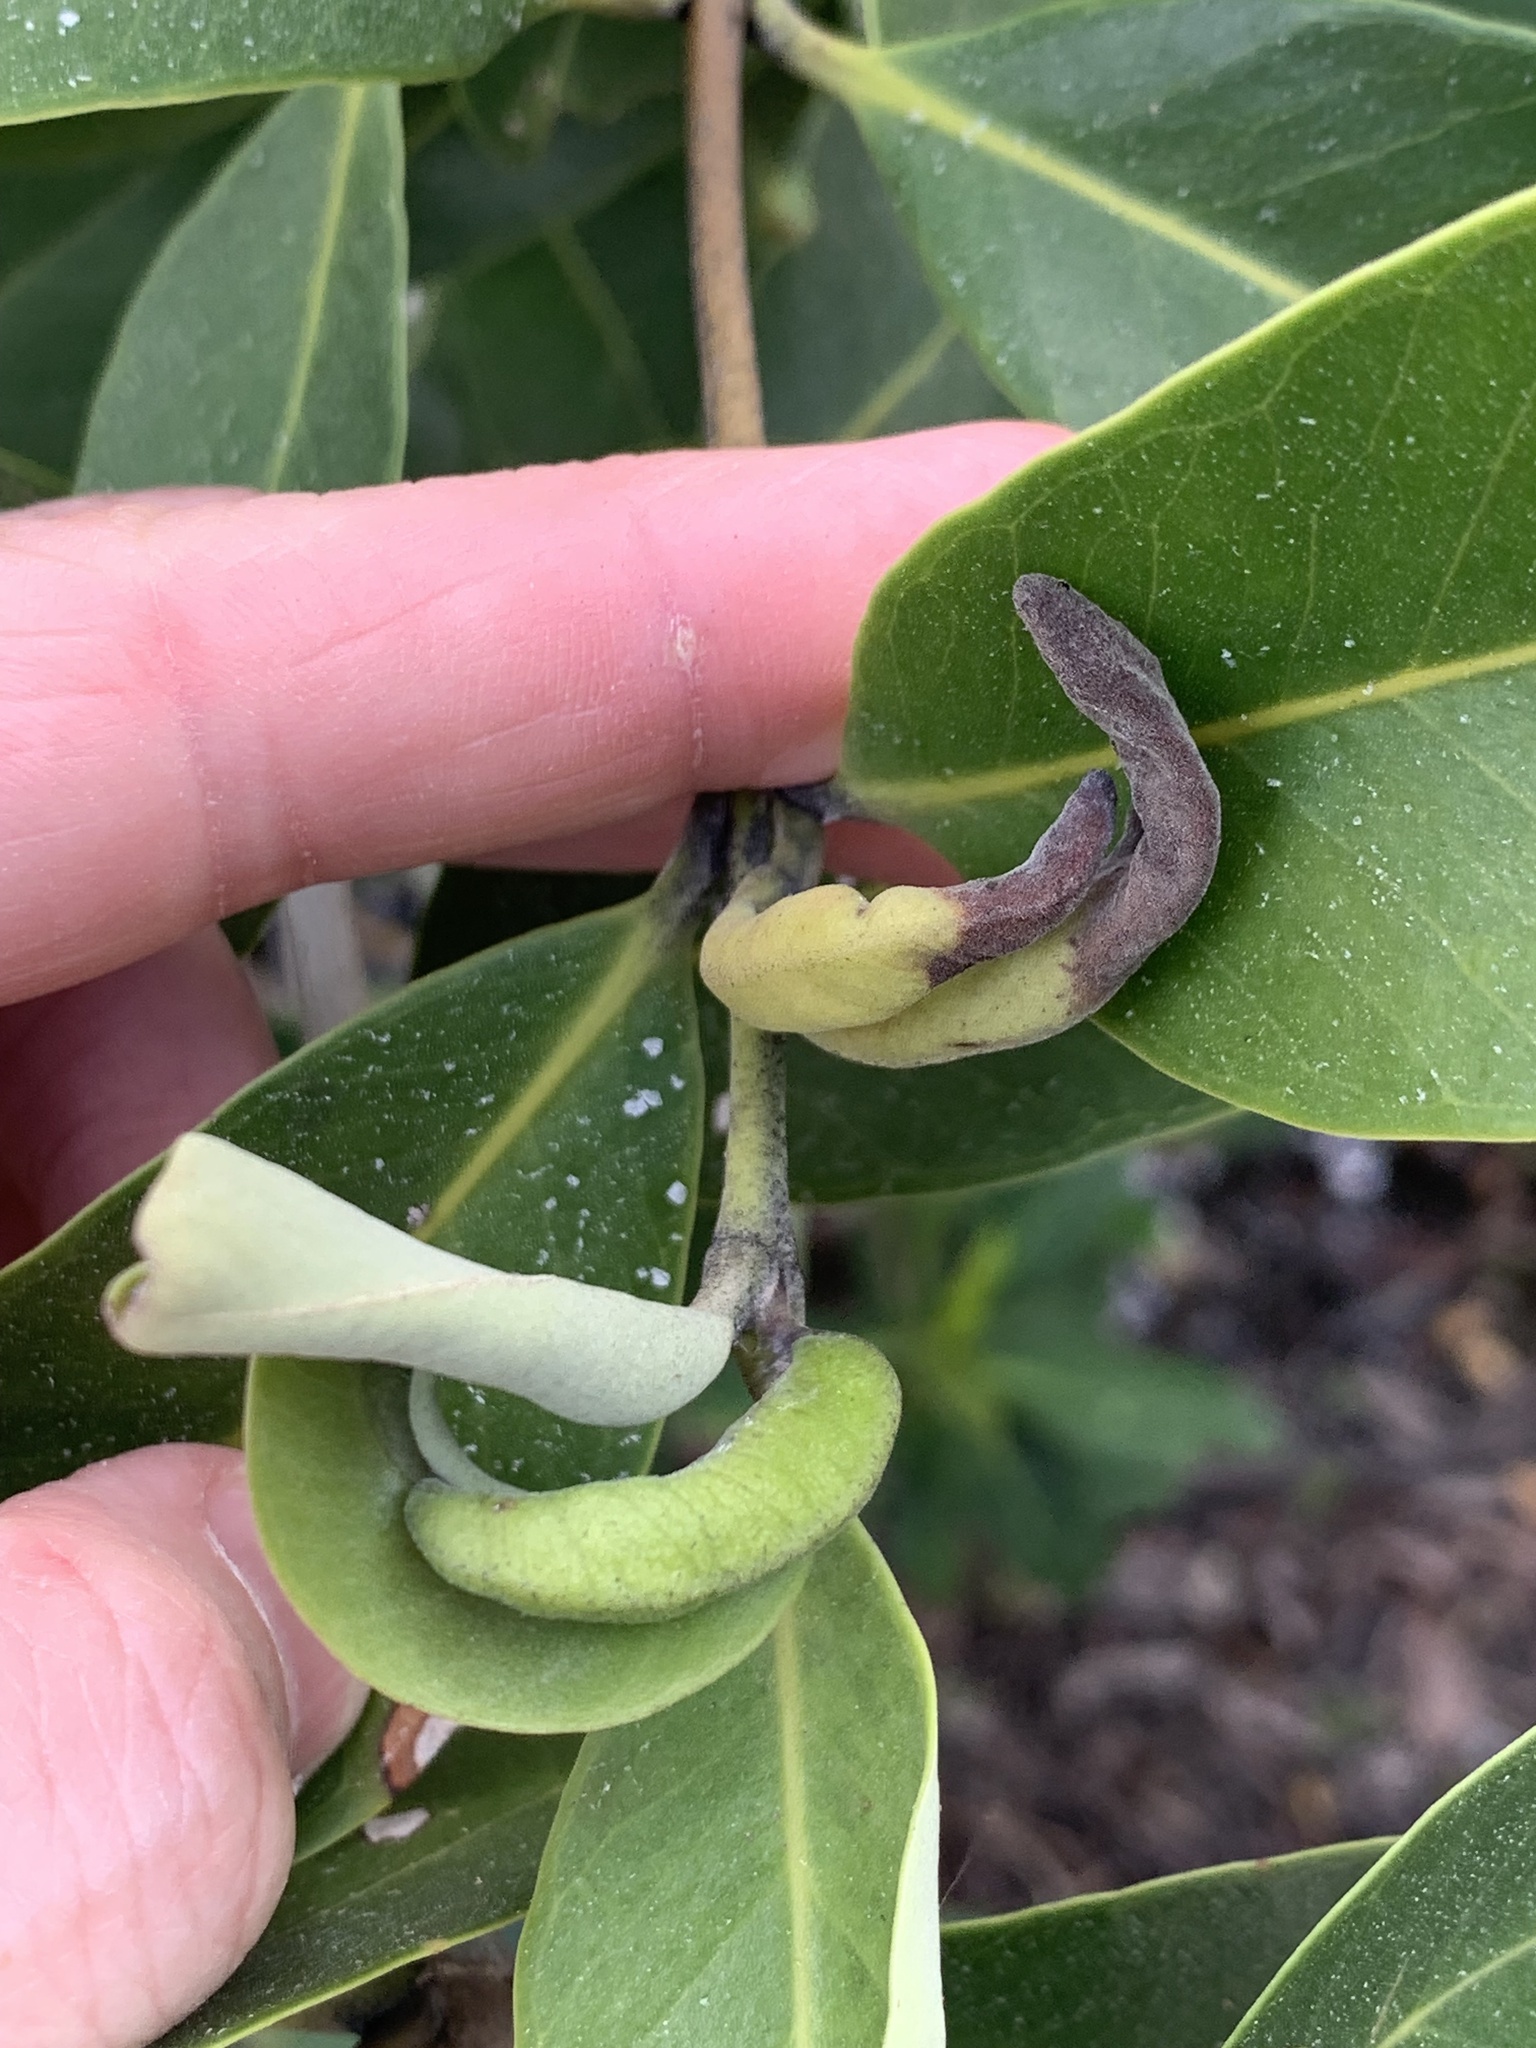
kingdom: Plantae
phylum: Tracheophyta
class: Magnoliopsida
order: Malpighiales
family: Rhizophoraceae
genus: Rhizophora
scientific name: Rhizophora mangle
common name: Red mangrove
